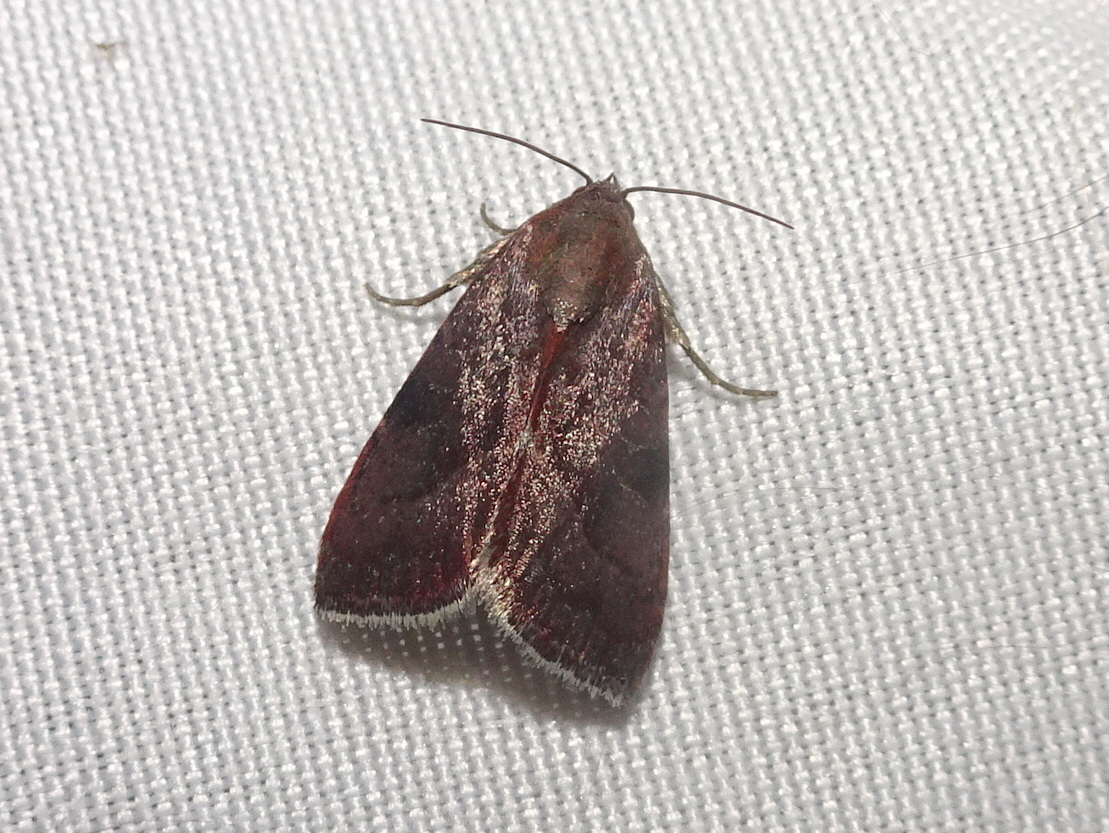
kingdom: Animalia
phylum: Arthropoda
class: Insecta
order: Lepidoptera
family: Noctuidae
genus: Galgula
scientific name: Galgula partita
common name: Wedgeling
